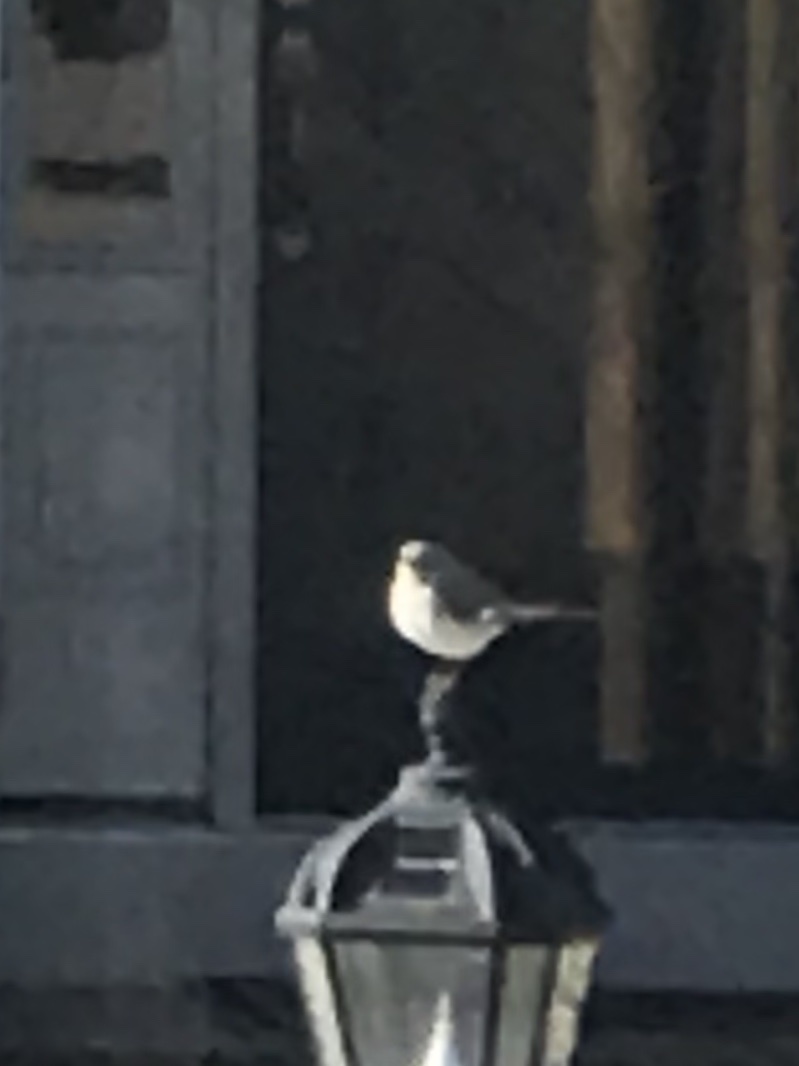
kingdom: Animalia
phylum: Chordata
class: Aves
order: Passeriformes
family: Mimidae
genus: Mimus
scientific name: Mimus polyglottos
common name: Northern mockingbird
